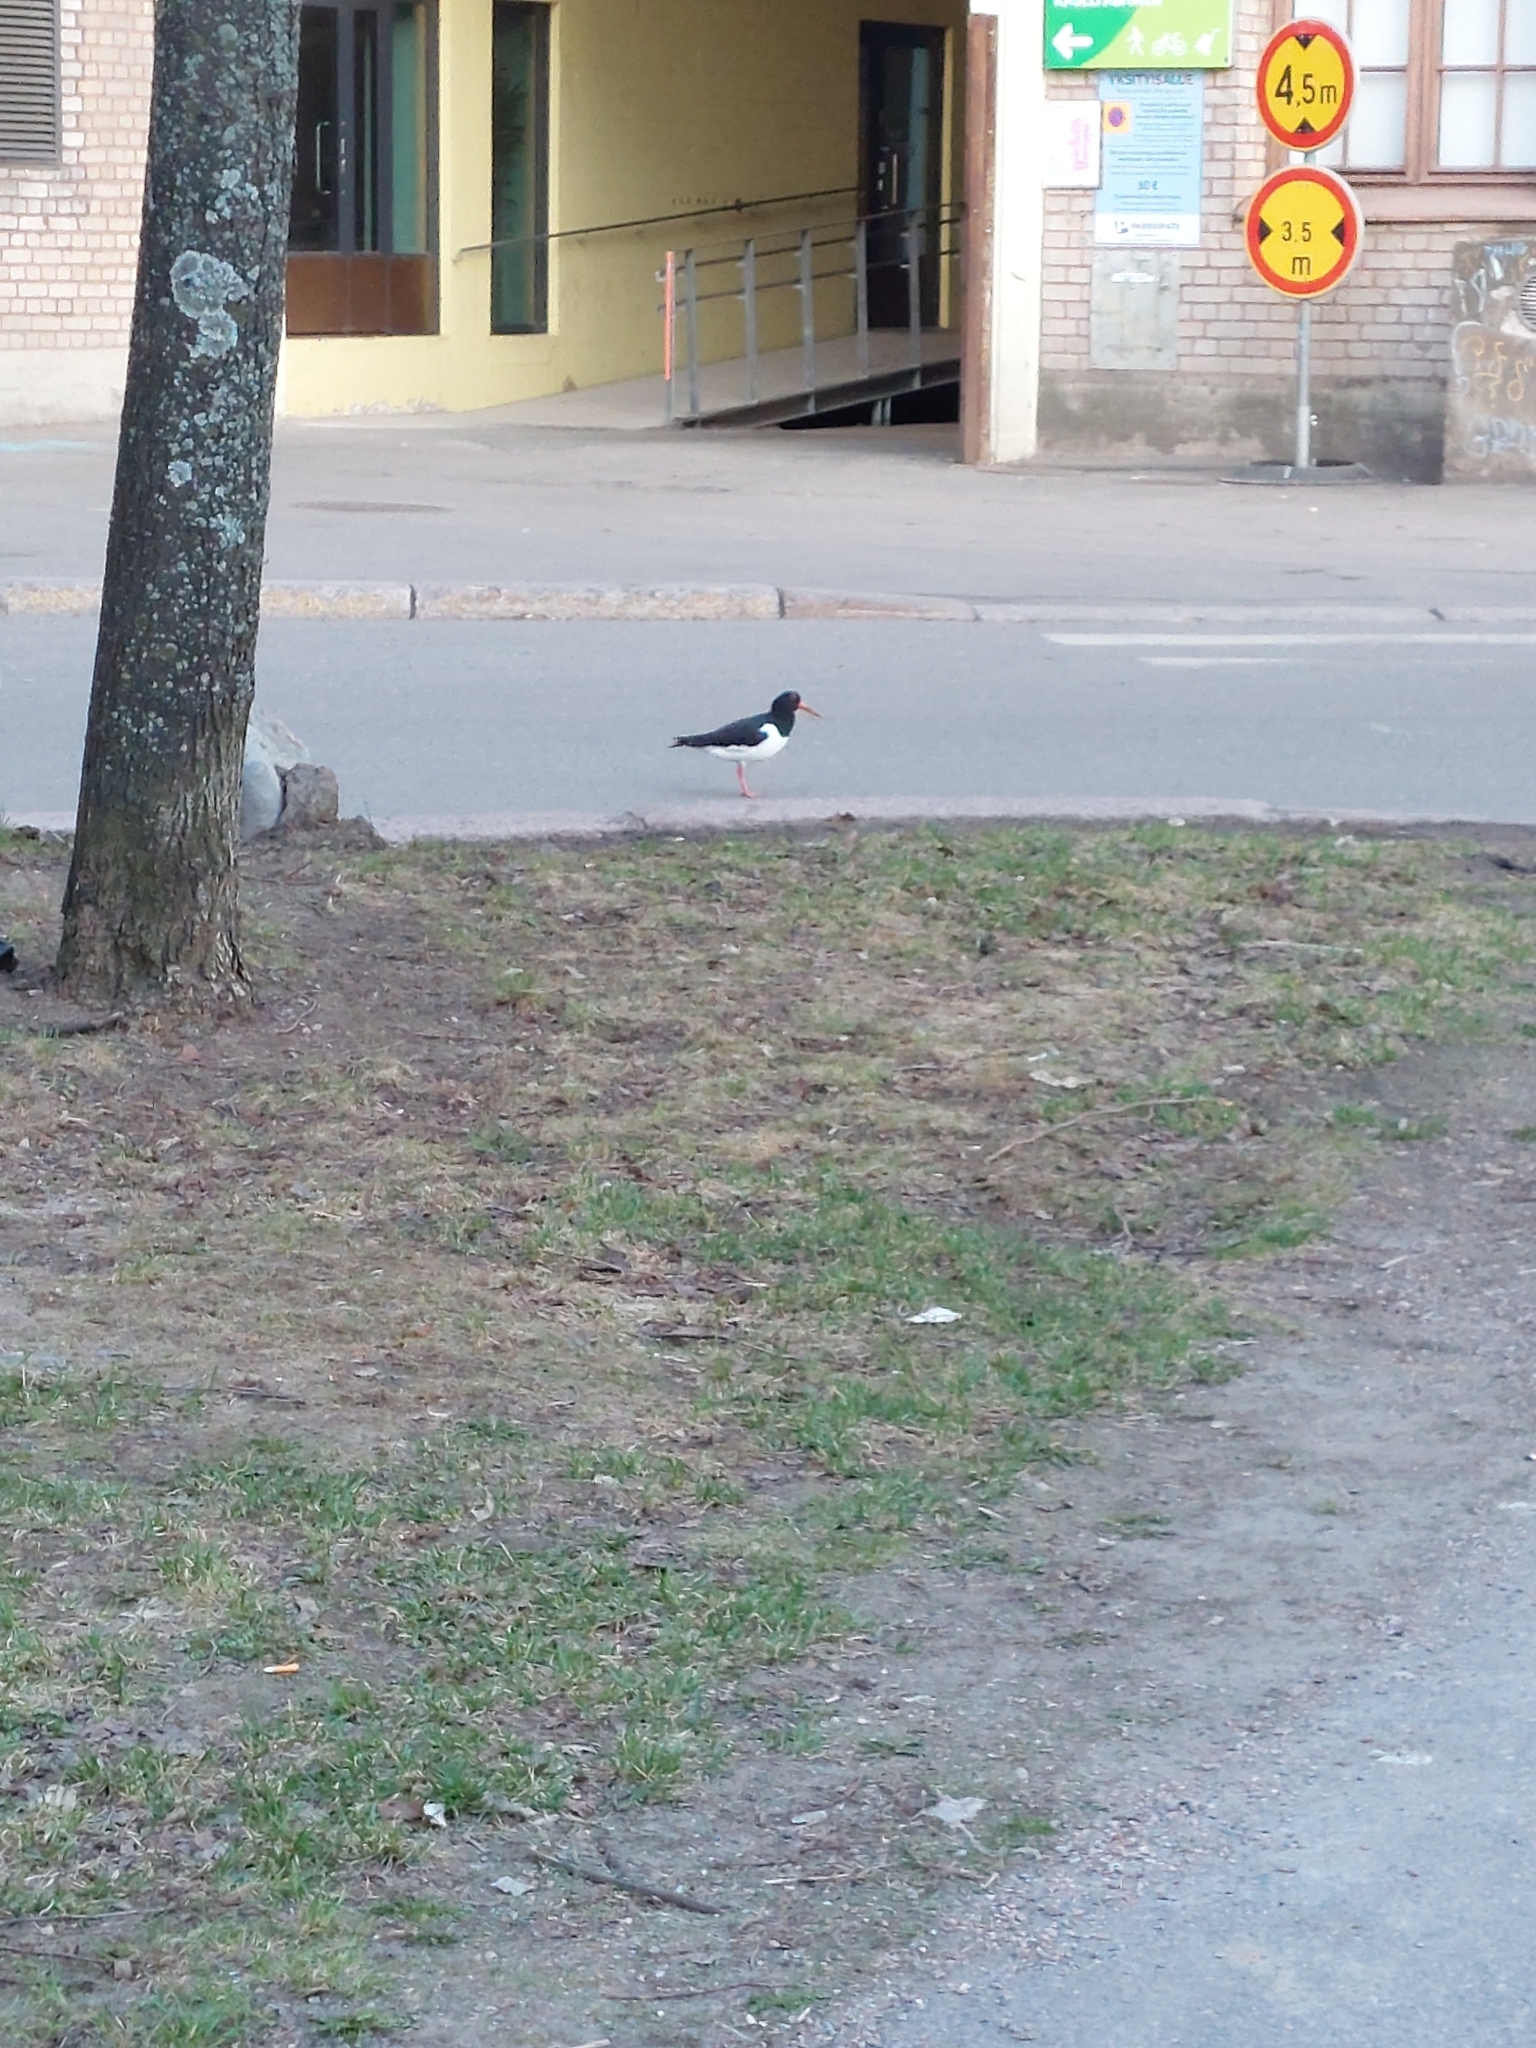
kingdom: Animalia
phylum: Chordata
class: Aves
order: Charadriiformes
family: Haematopodidae
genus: Haematopus
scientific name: Haematopus ostralegus
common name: Eurasian oystercatcher
